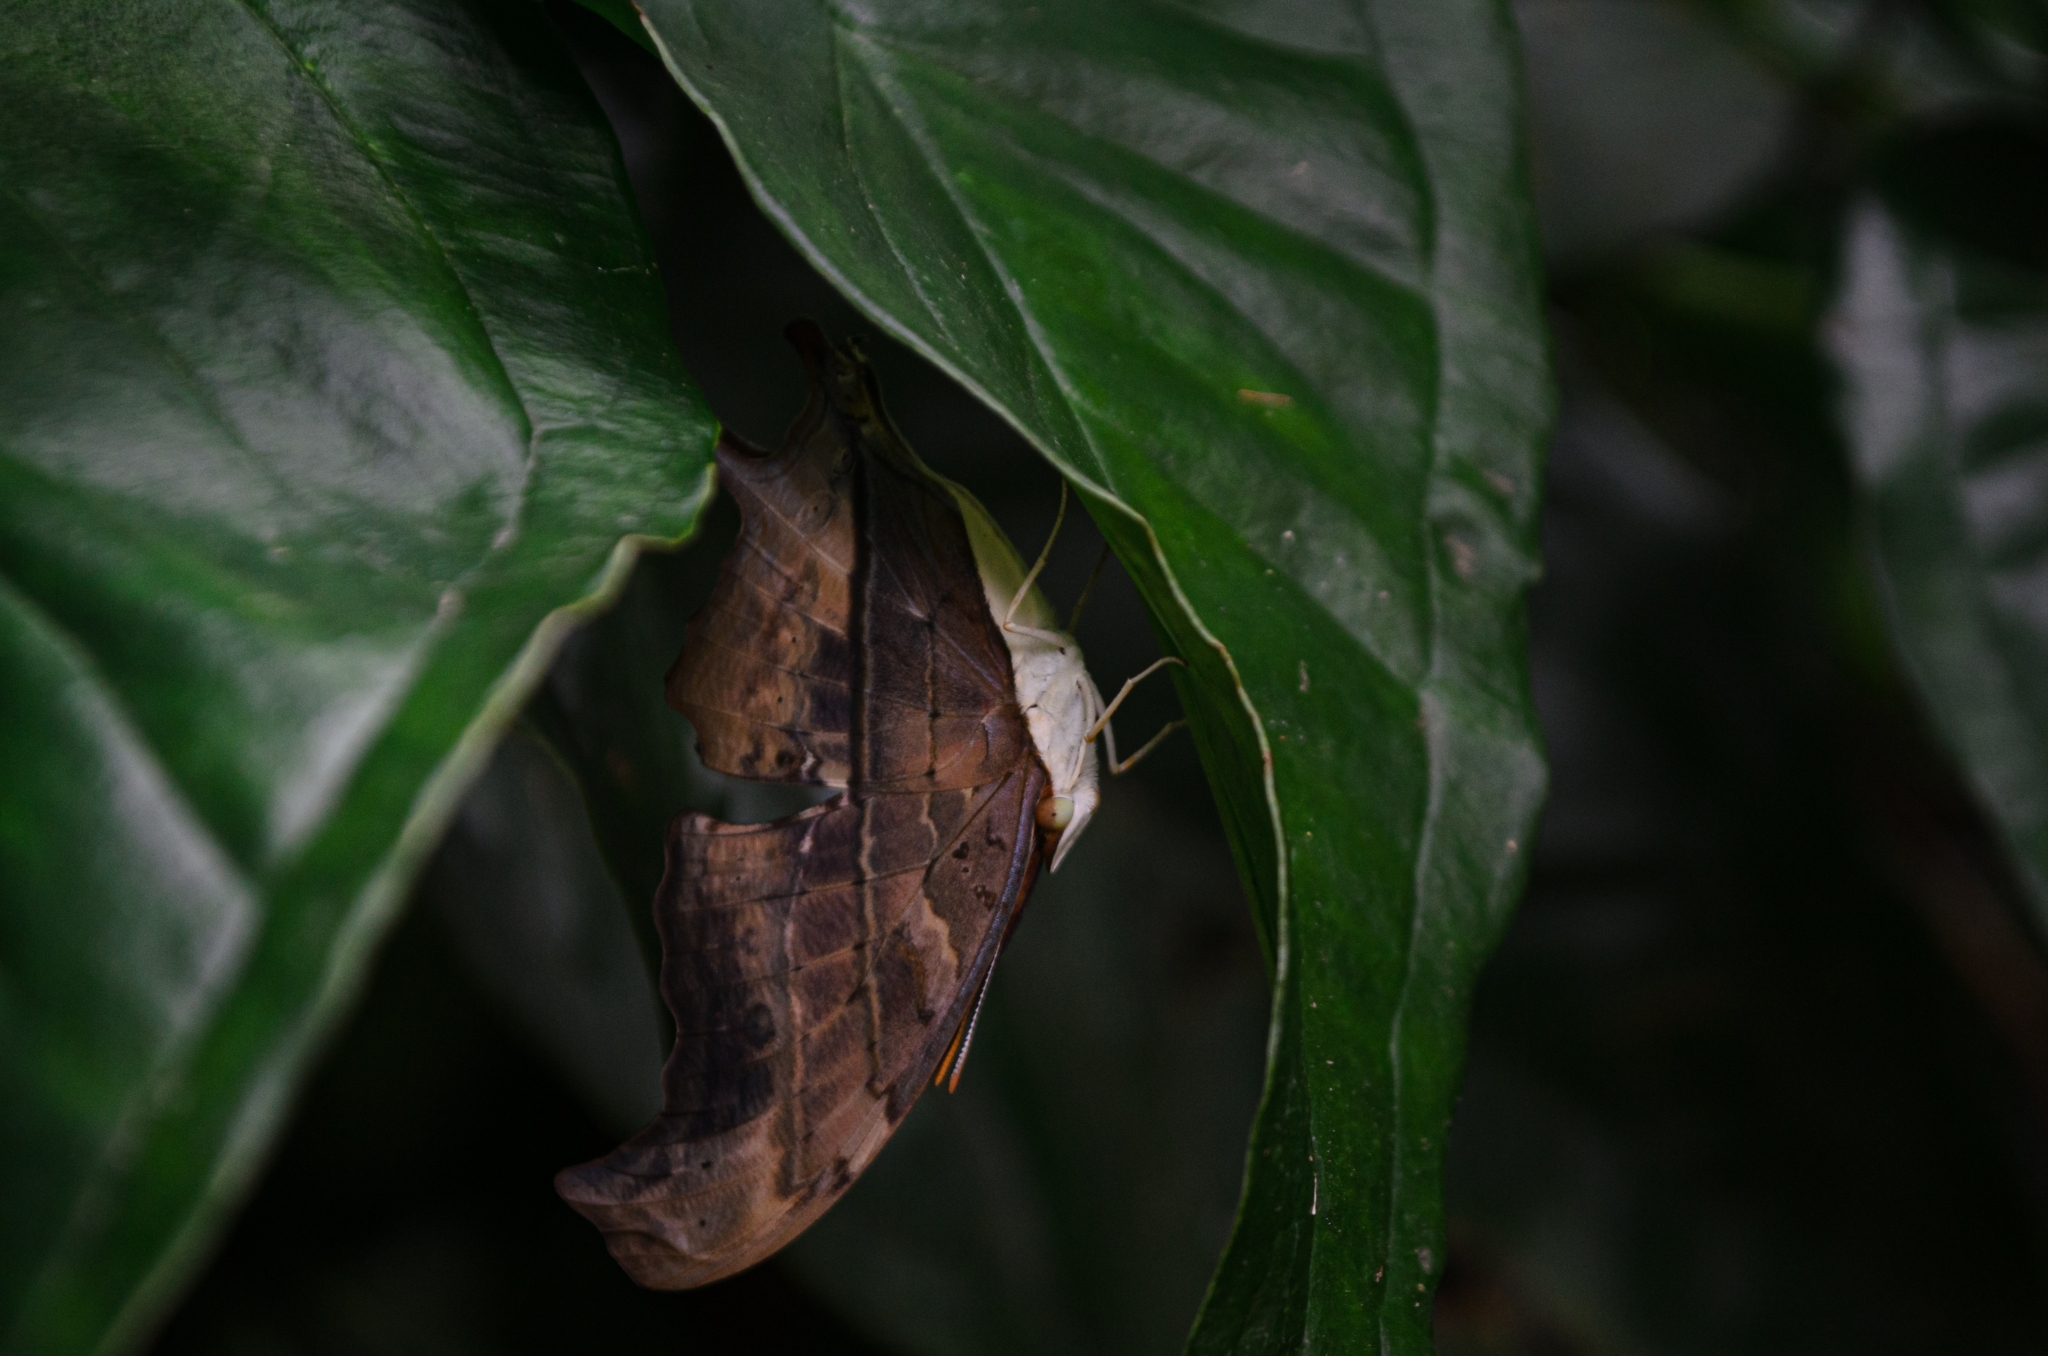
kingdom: Animalia
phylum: Arthropoda
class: Insecta
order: Lepidoptera
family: Nymphalidae
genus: Marpesia
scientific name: Marpesia petreus
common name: Red dagger wing
